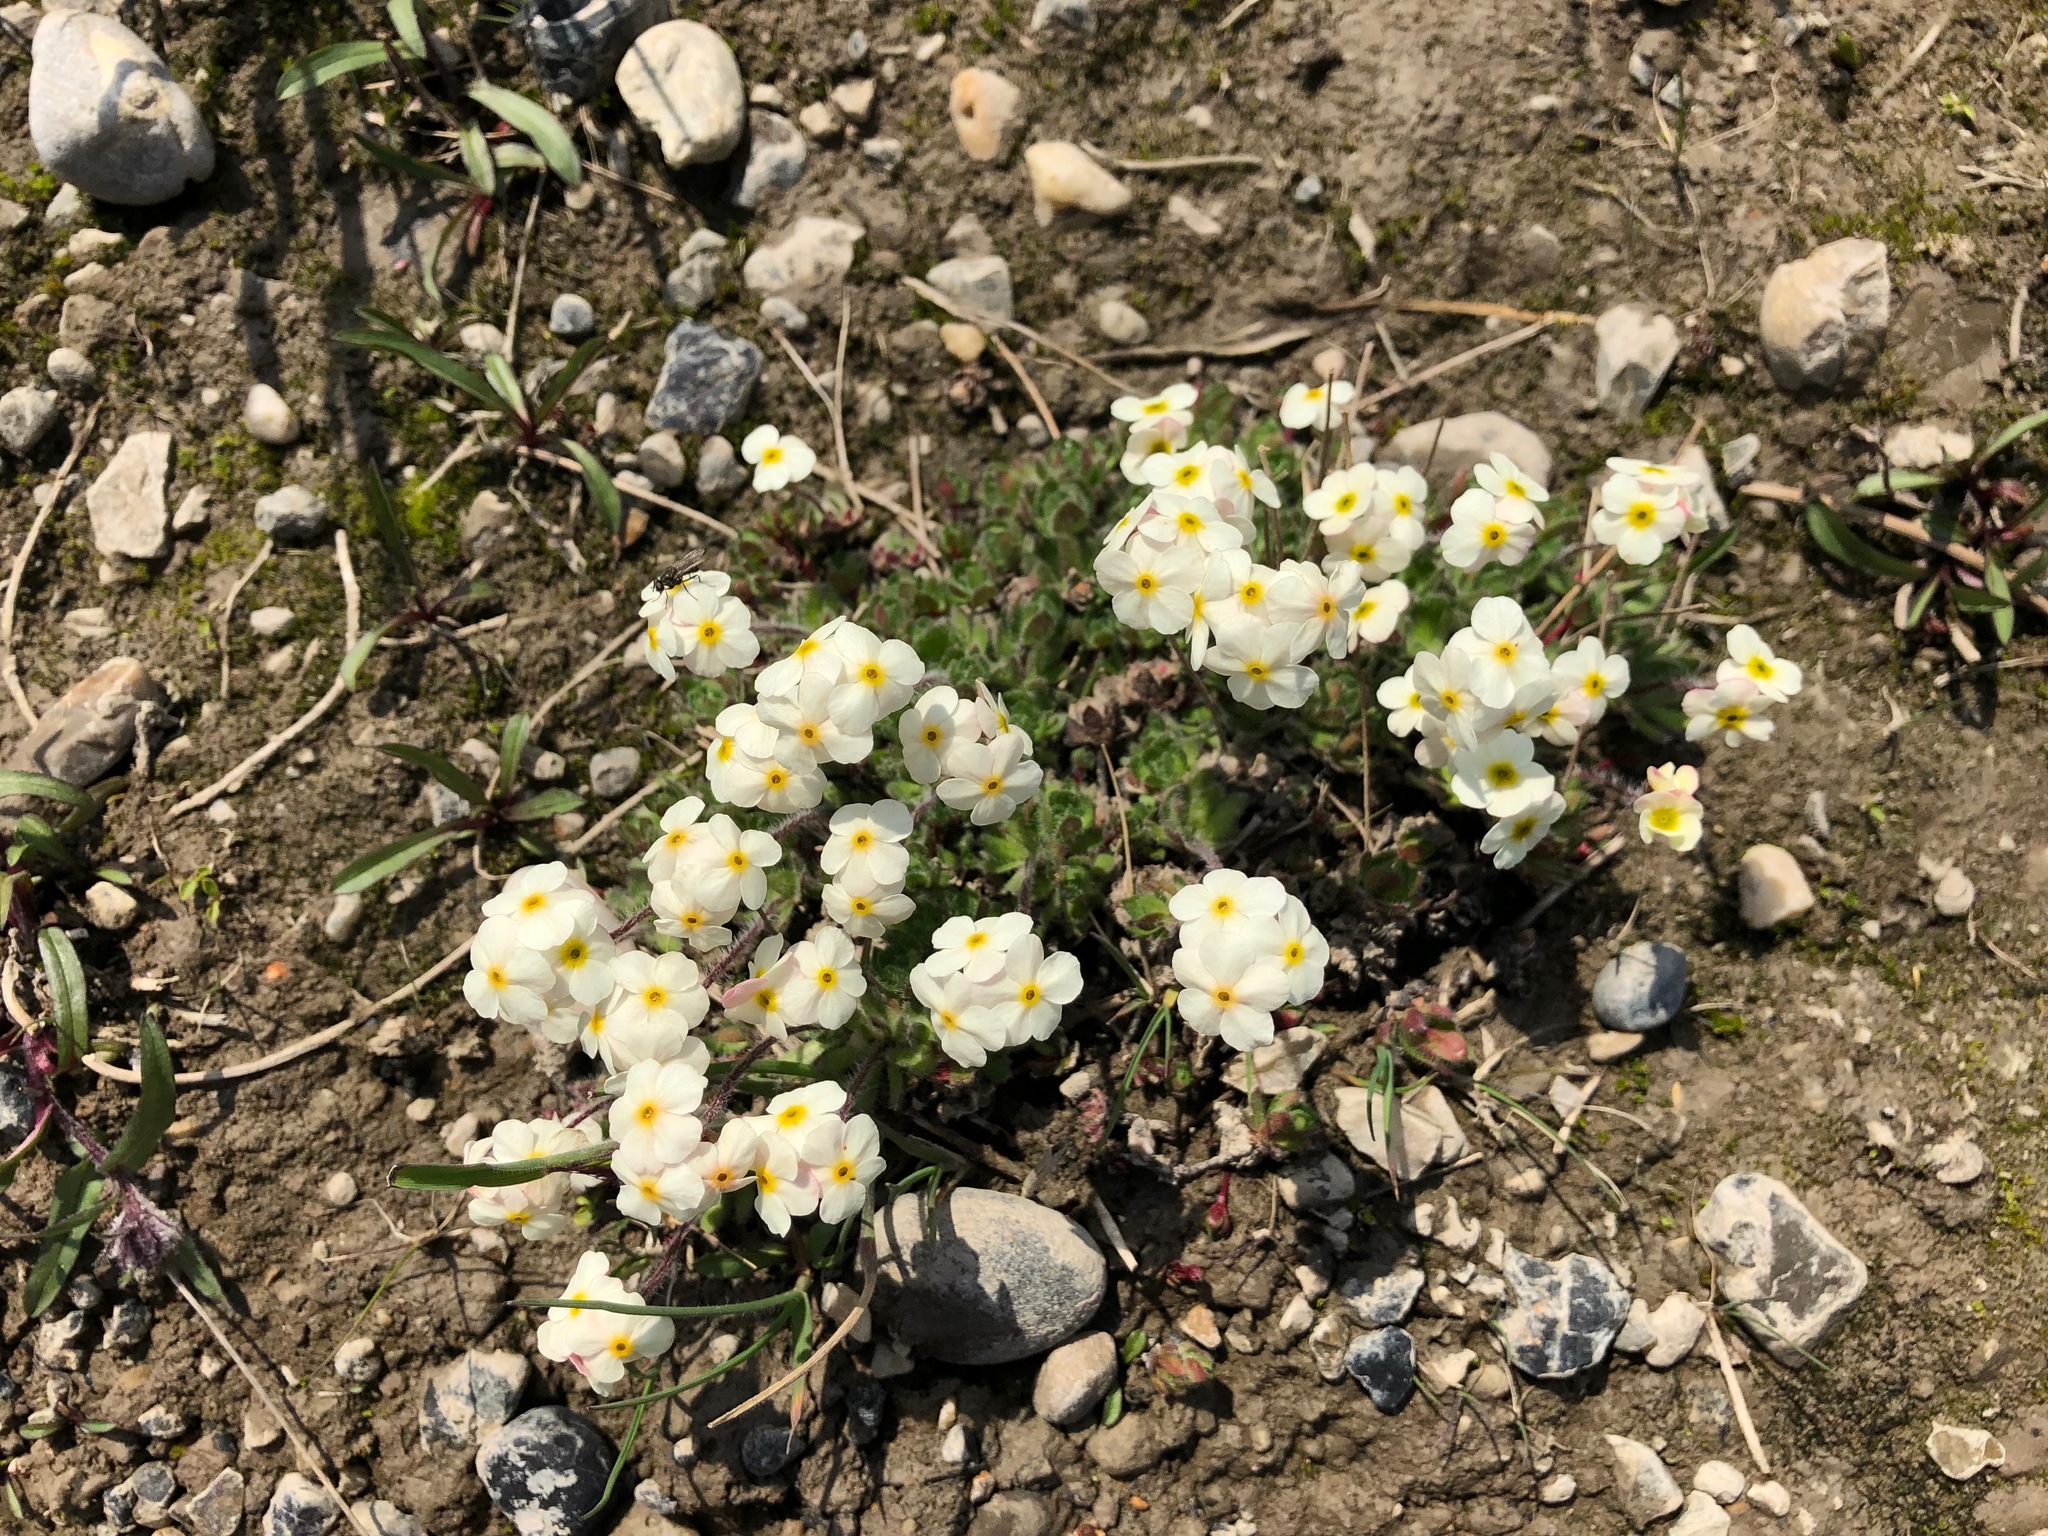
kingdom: Plantae
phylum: Tracheophyta
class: Magnoliopsida
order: Ericales
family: Primulaceae
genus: Androsace
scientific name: Androsace chamaejasme
